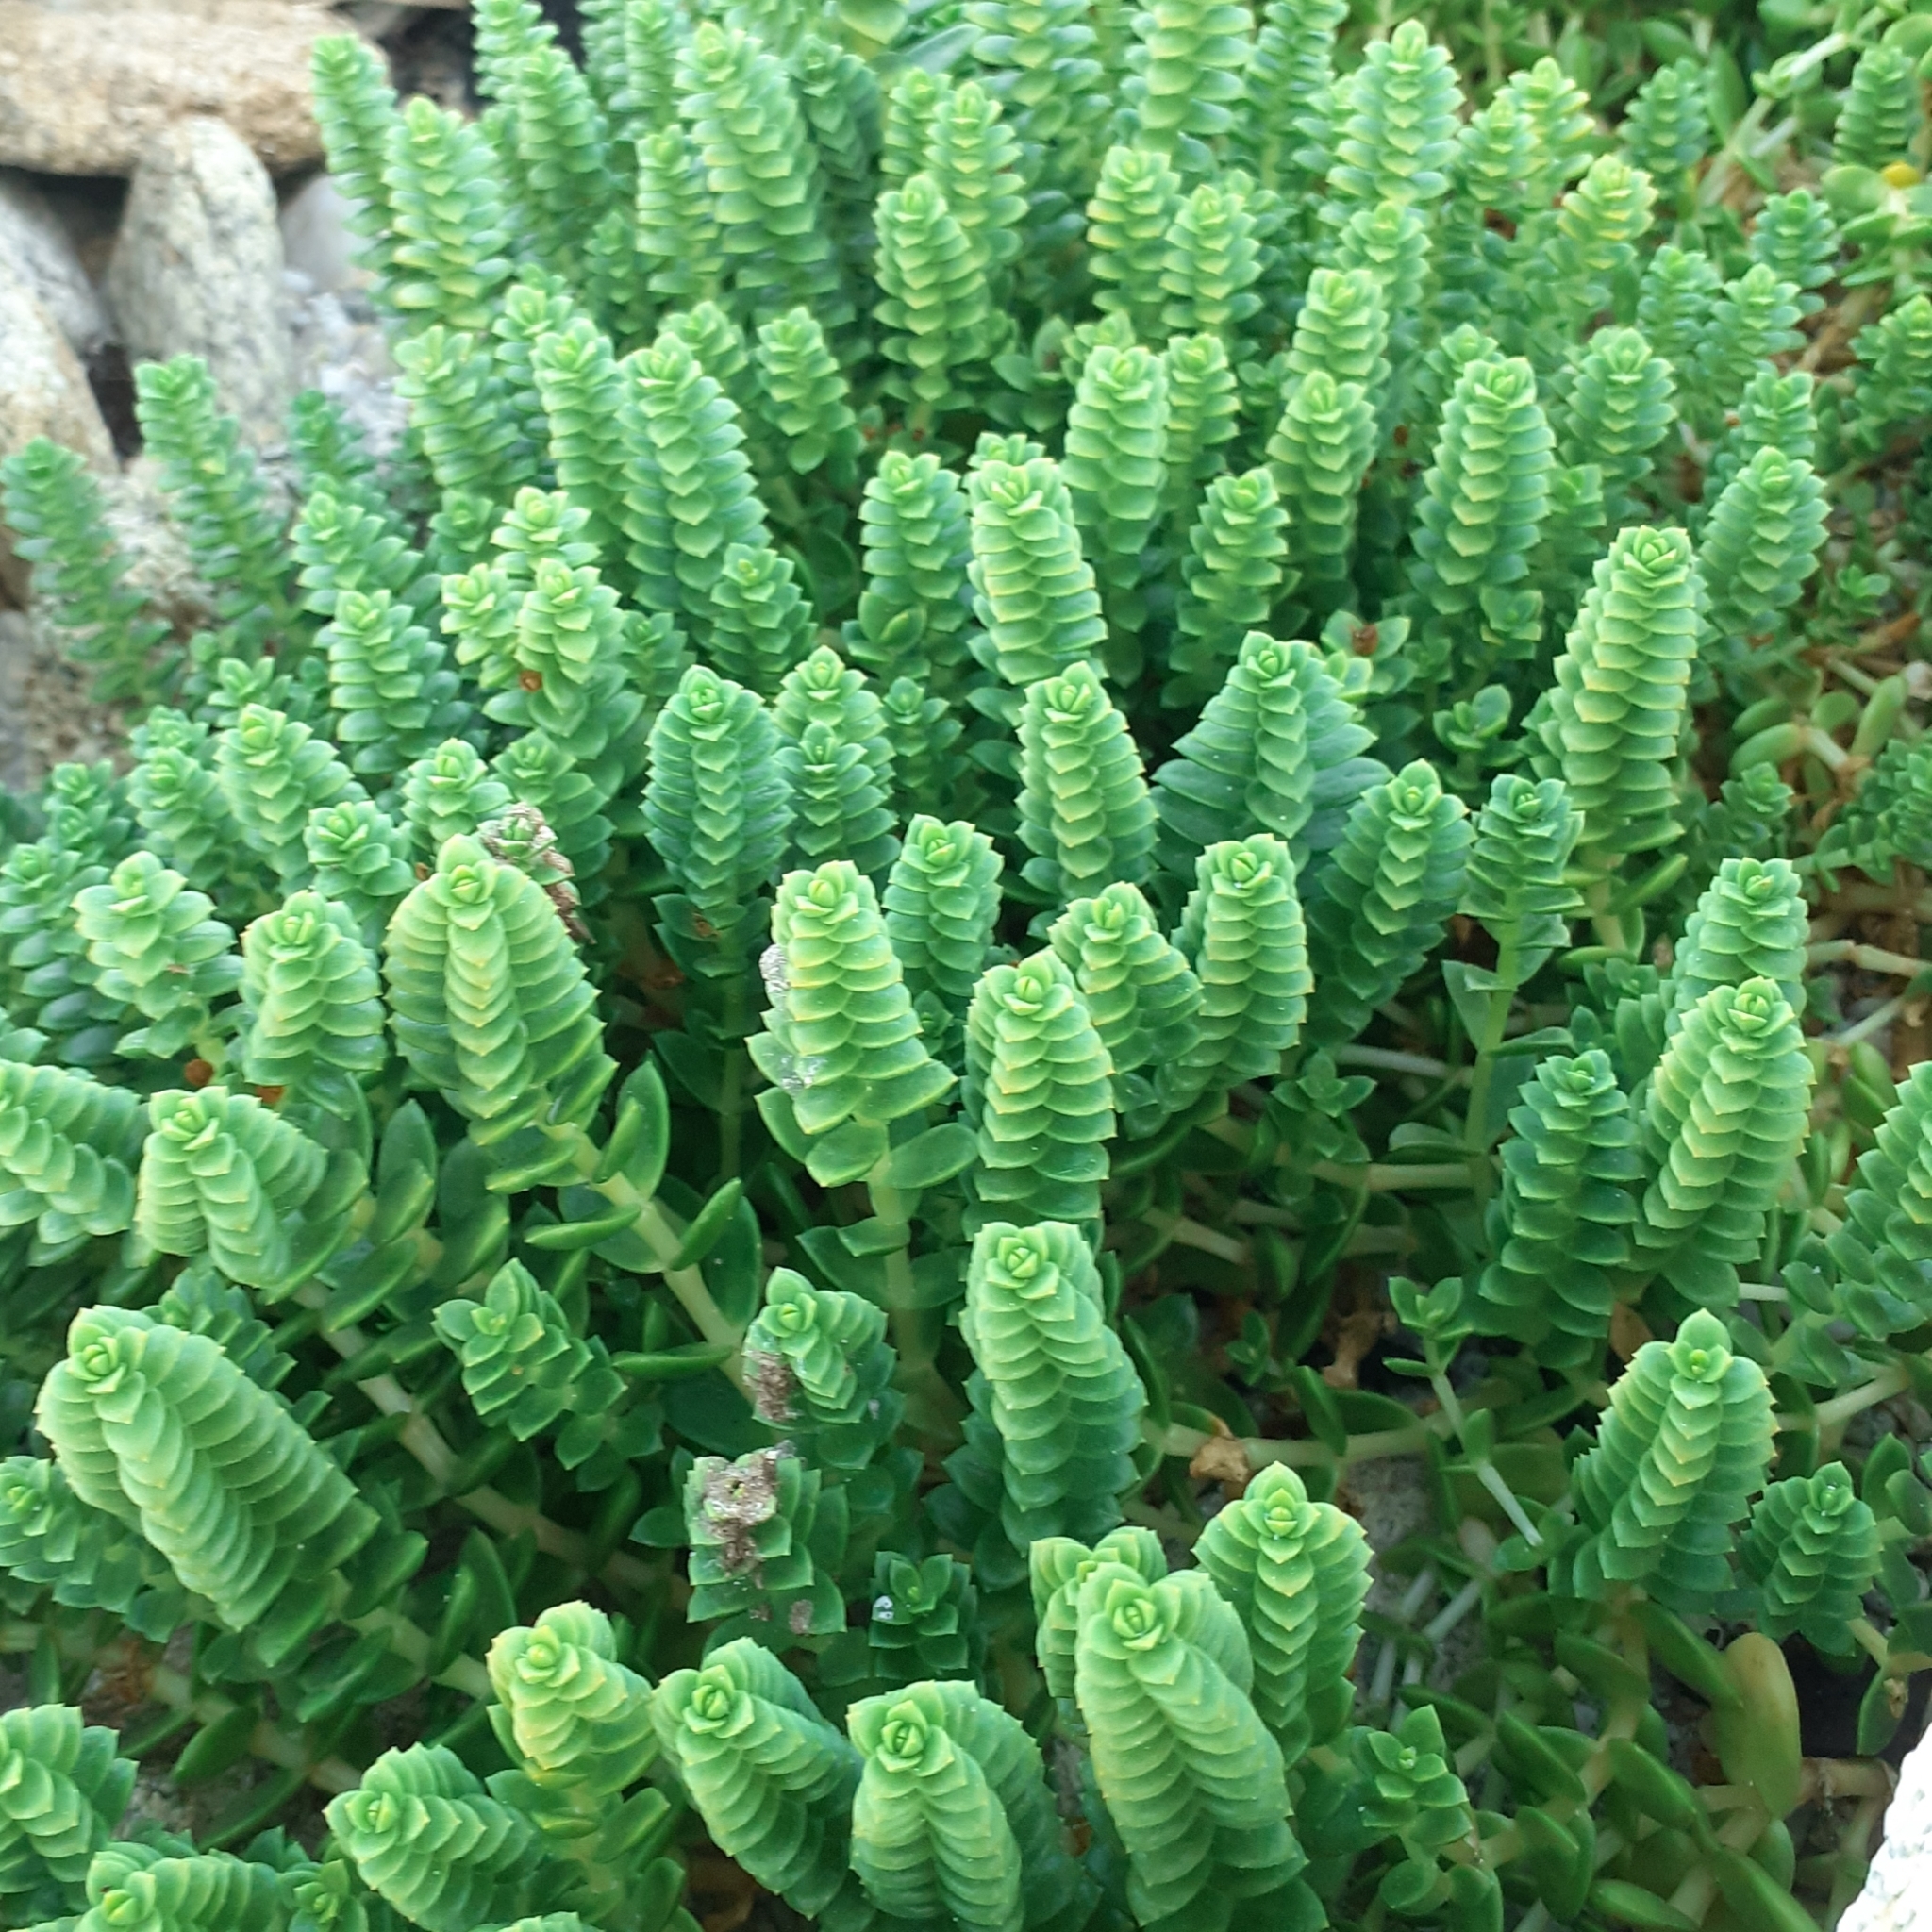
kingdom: Plantae
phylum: Tracheophyta
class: Magnoliopsida
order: Caryophyllales
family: Caryophyllaceae
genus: Honckenya
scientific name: Honckenya peploides
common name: Sea sandwort
